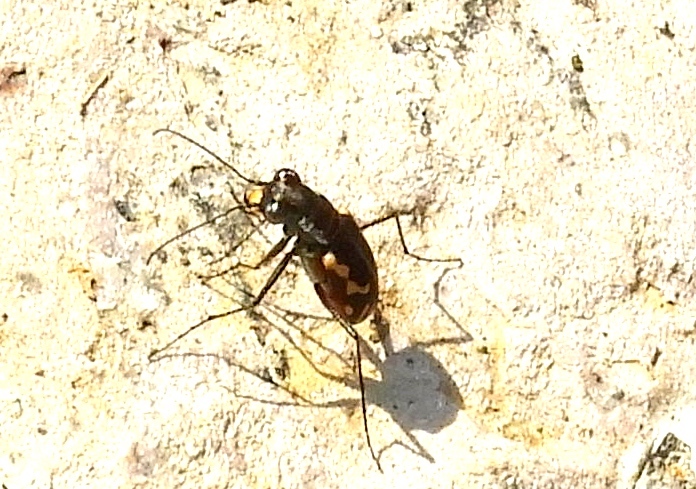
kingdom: Animalia
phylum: Arthropoda
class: Insecta
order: Coleoptera
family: Carabidae
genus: Cicindela
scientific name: Cicindela hydrophoba
